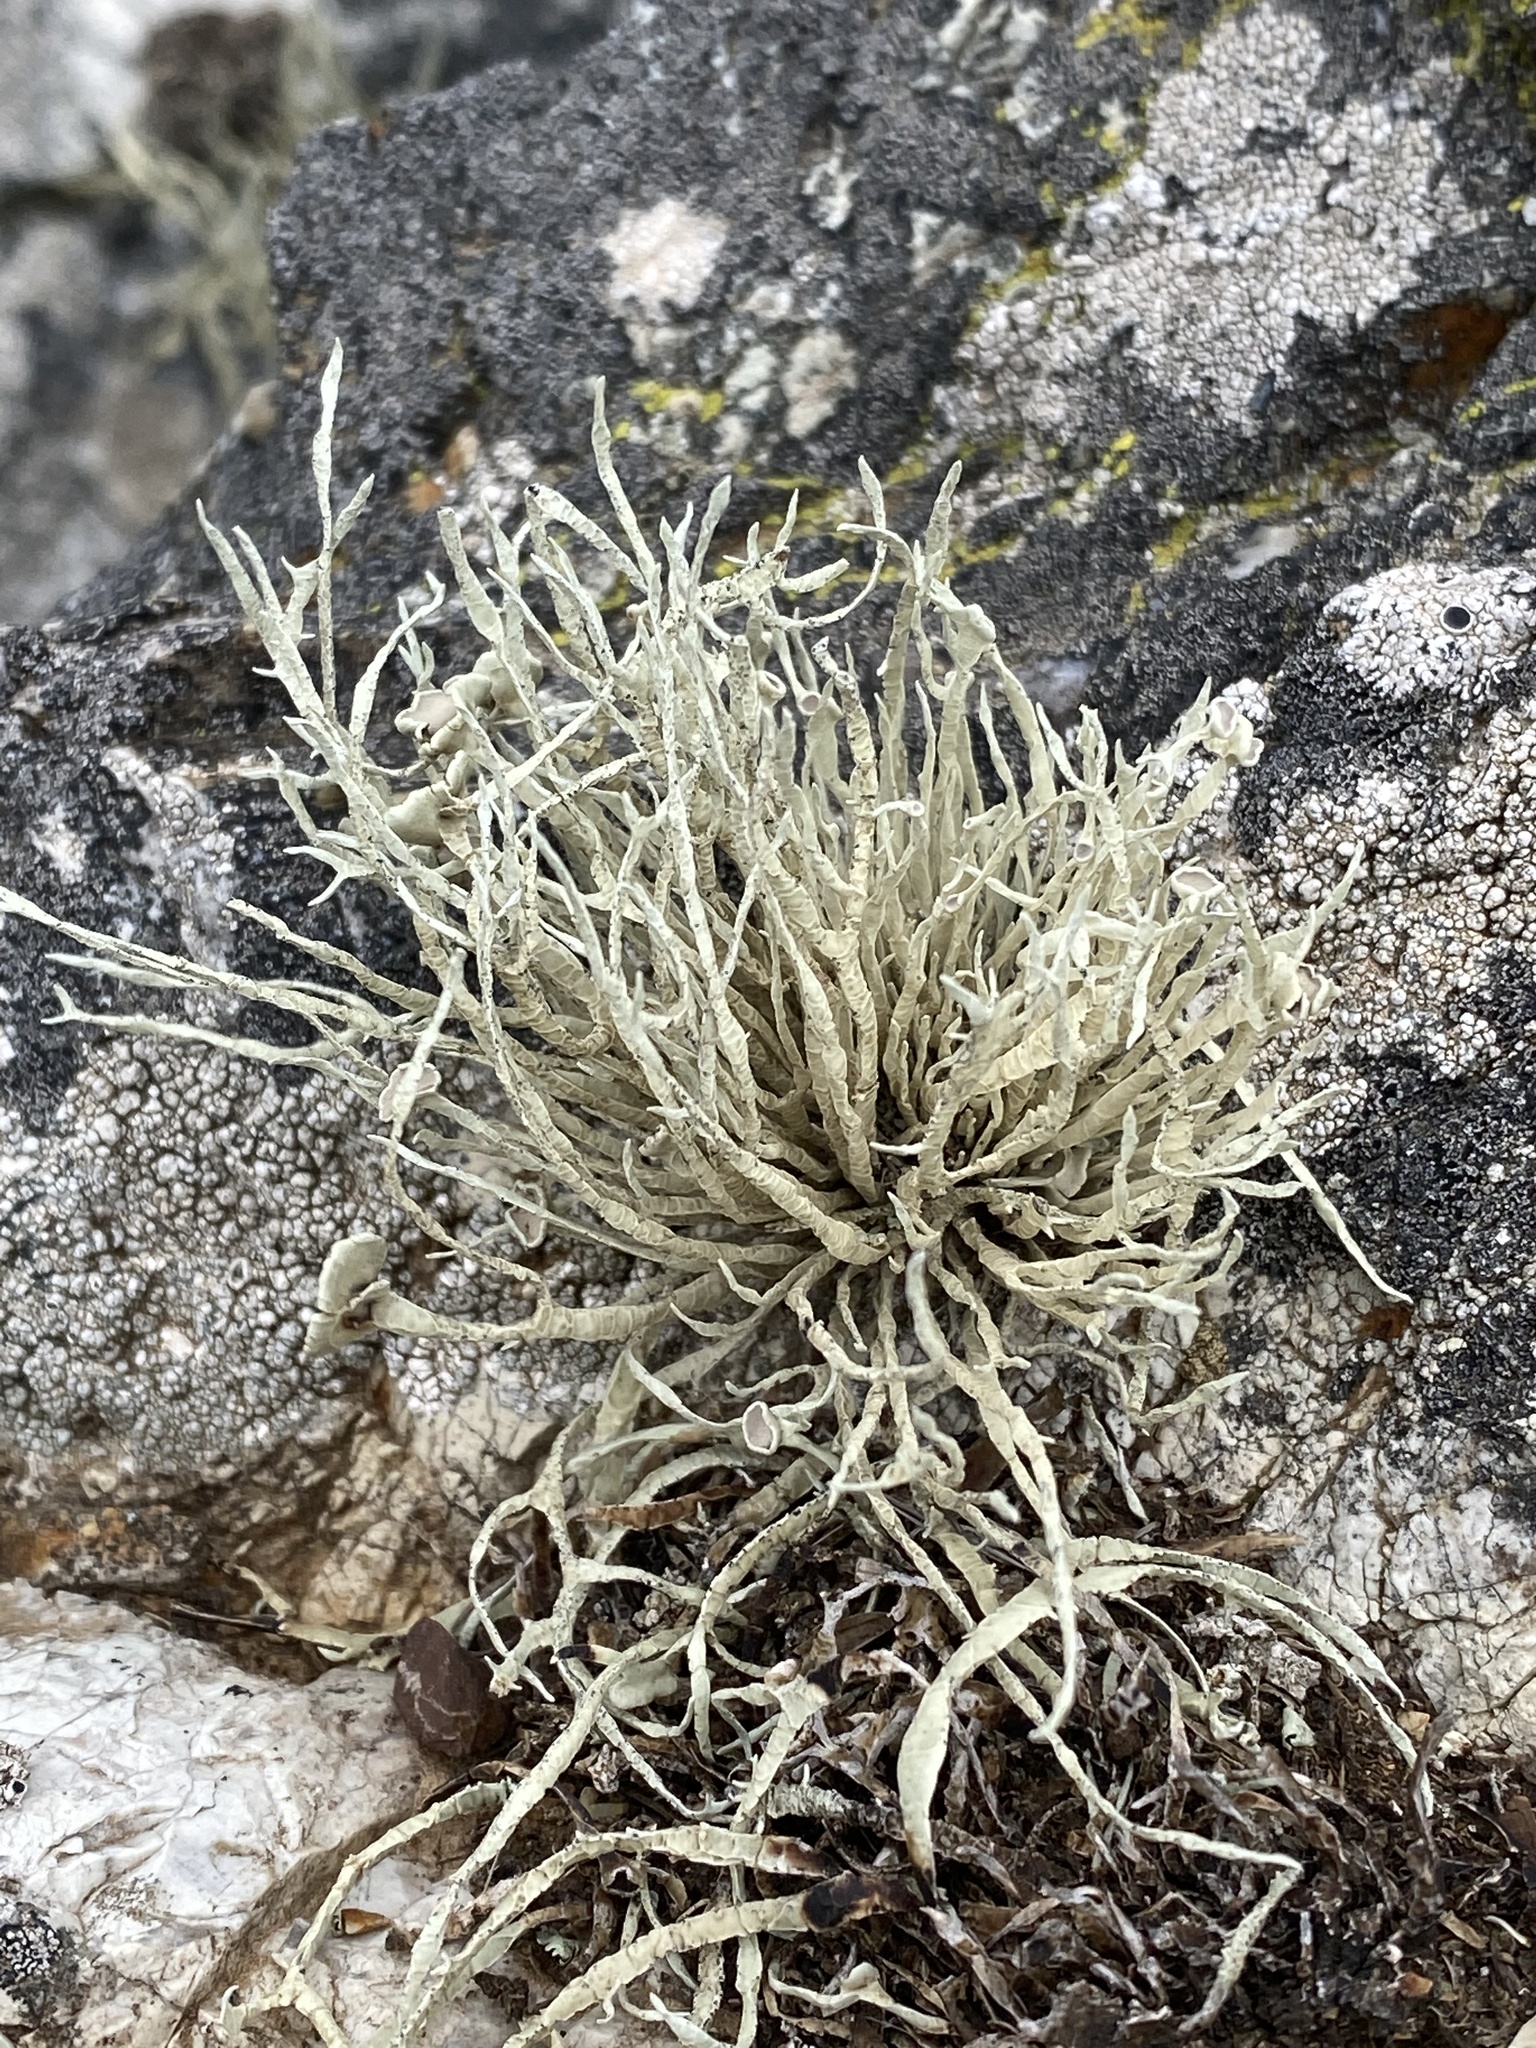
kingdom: Fungi
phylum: Ascomycota
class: Lecanoromycetes
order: Lecanorales
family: Ramalinaceae
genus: Niebla
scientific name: Niebla homalea
